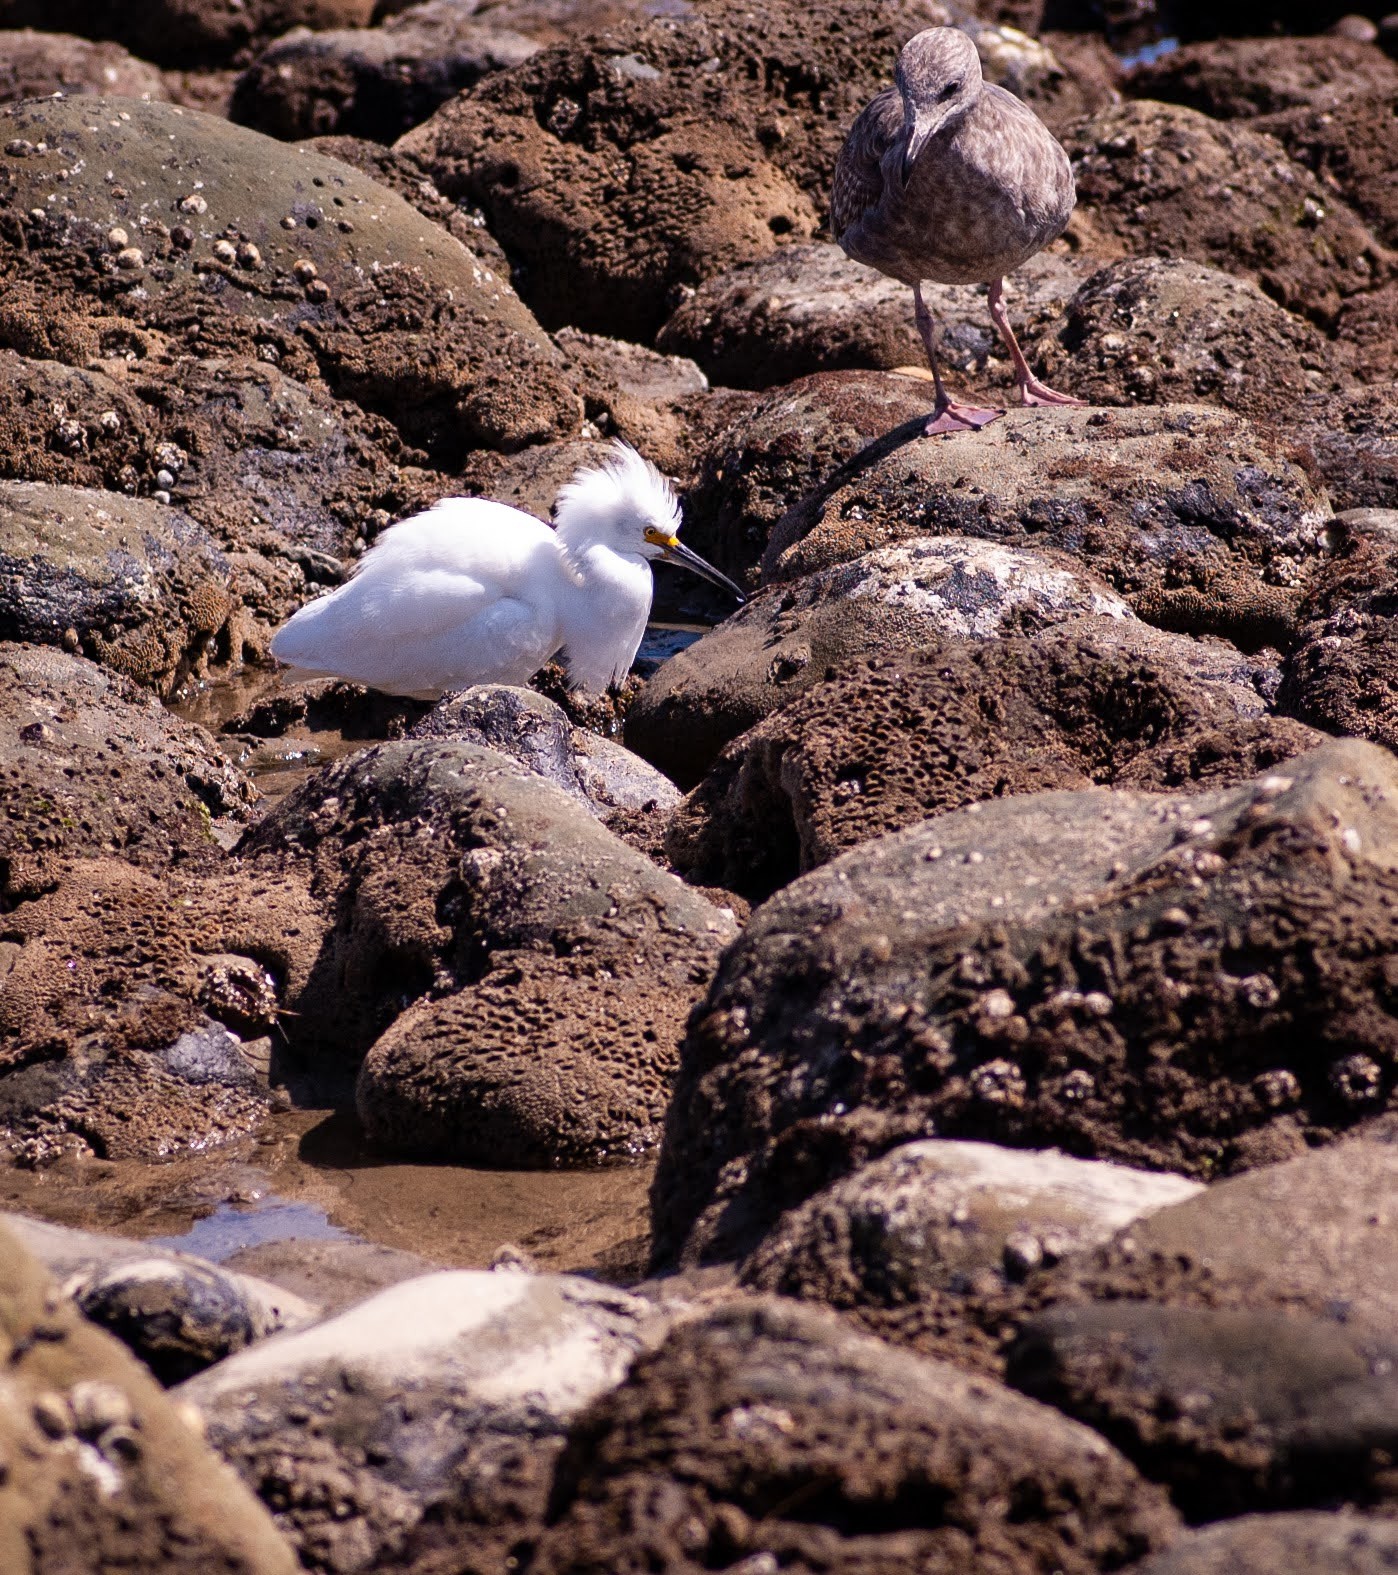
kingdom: Animalia
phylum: Chordata
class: Aves
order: Pelecaniformes
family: Ardeidae
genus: Egretta
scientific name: Egretta thula
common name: Snowy egret
